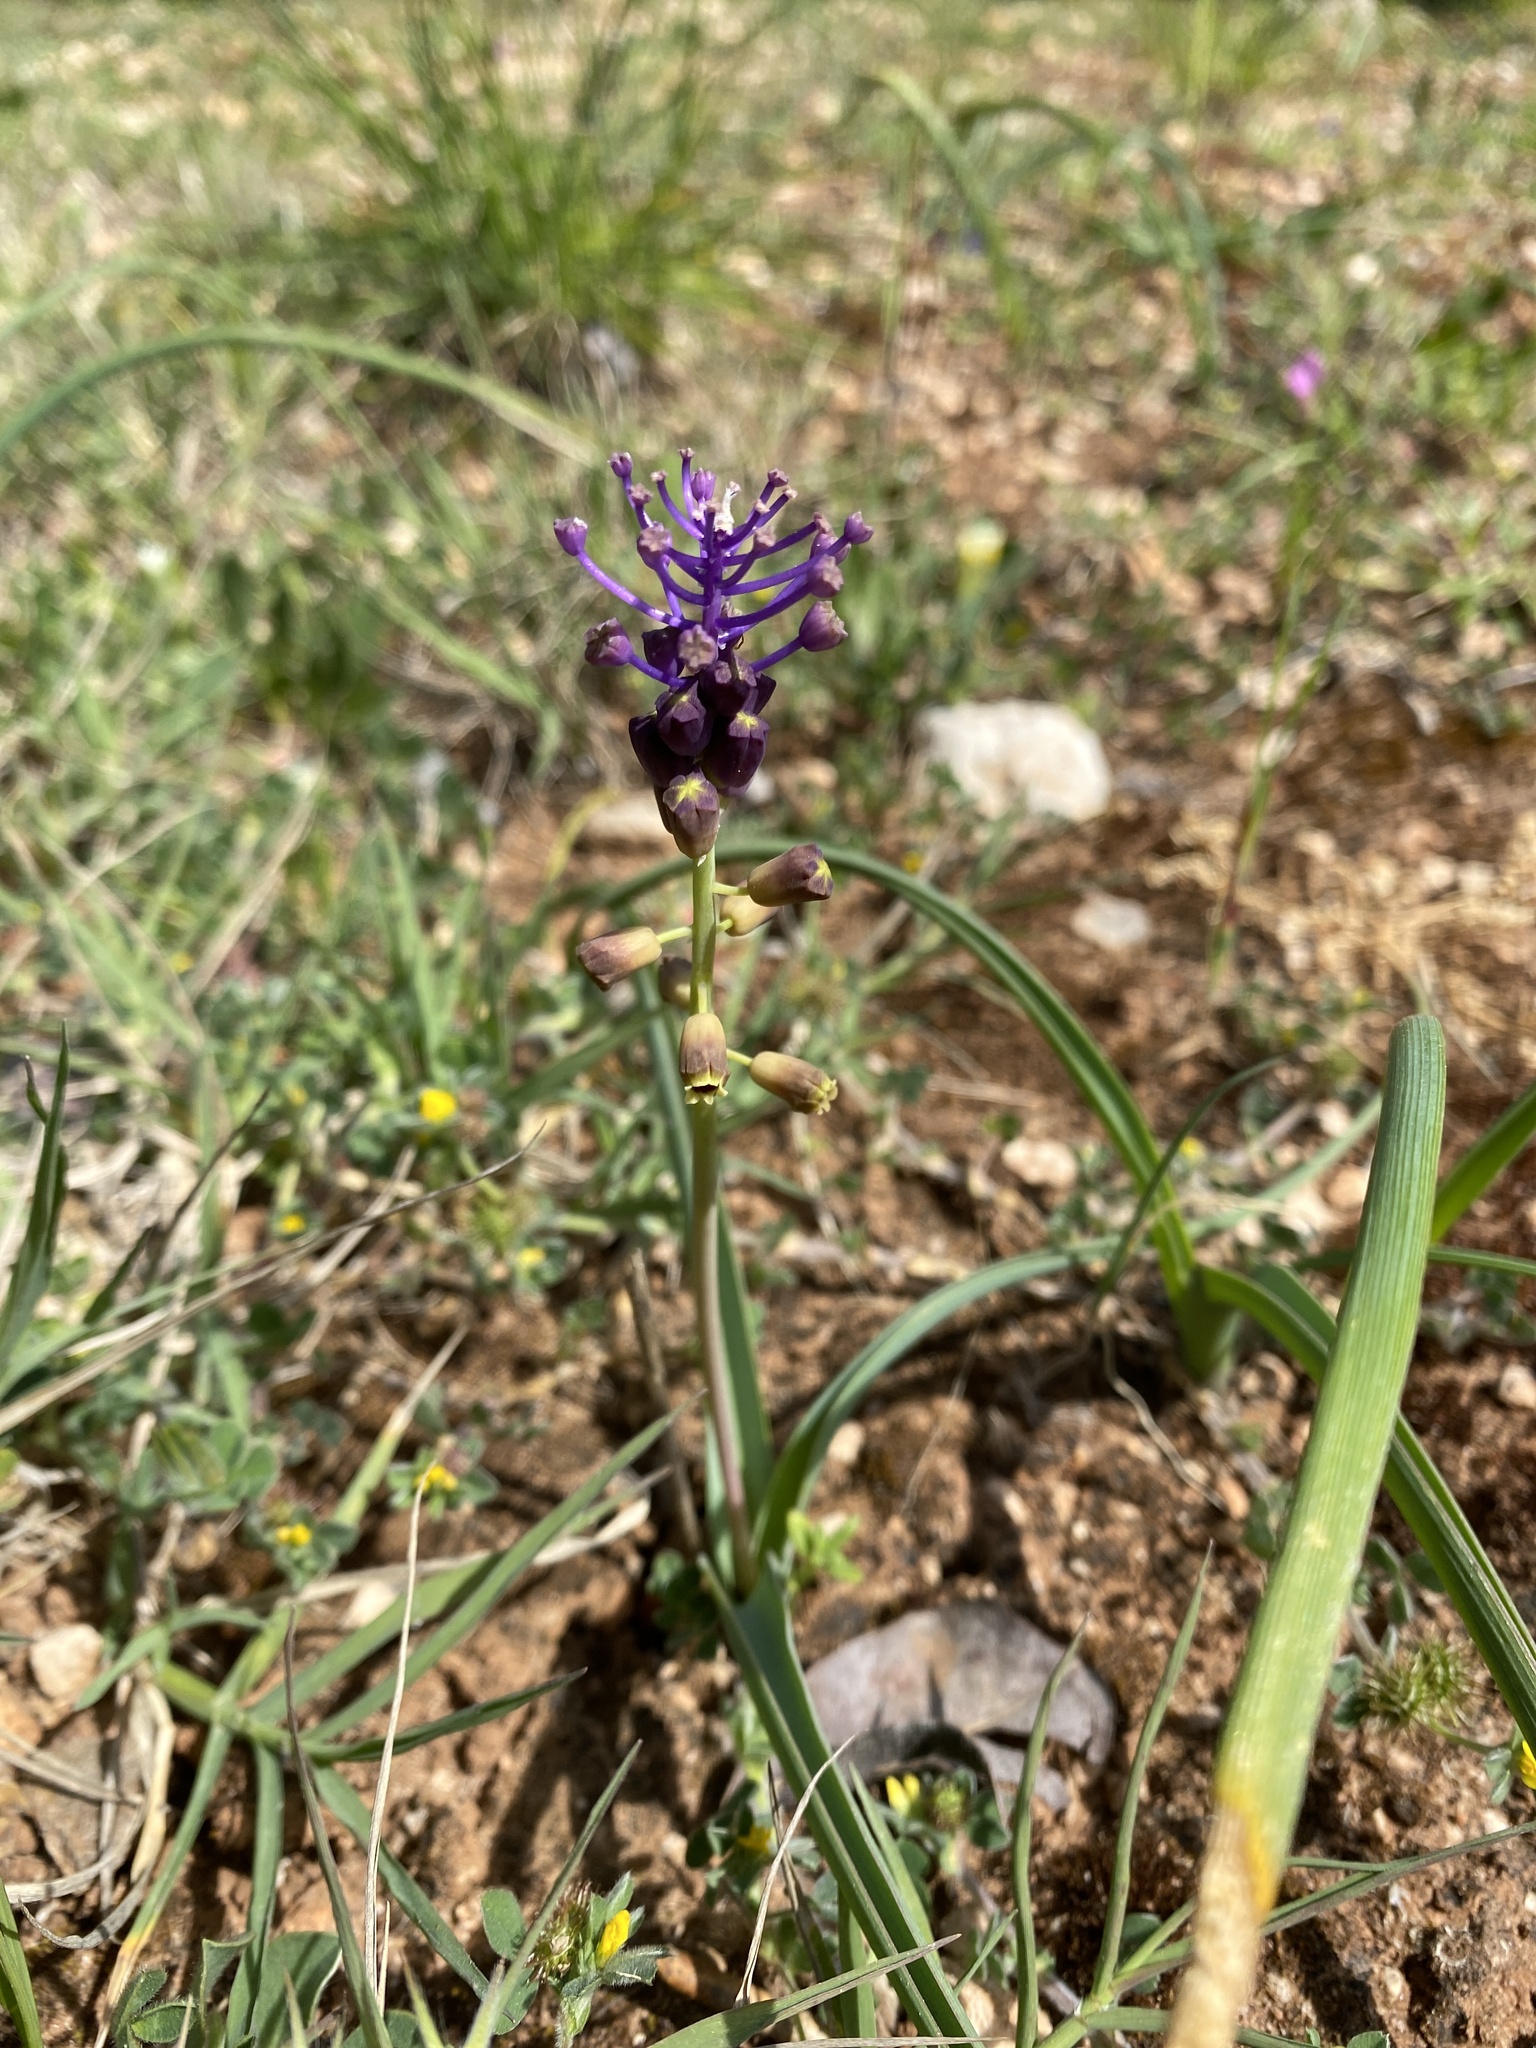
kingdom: Plantae
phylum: Tracheophyta
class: Liliopsida
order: Asparagales
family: Asparagaceae
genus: Muscari
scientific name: Muscari comosum
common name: Tassel hyacinth
